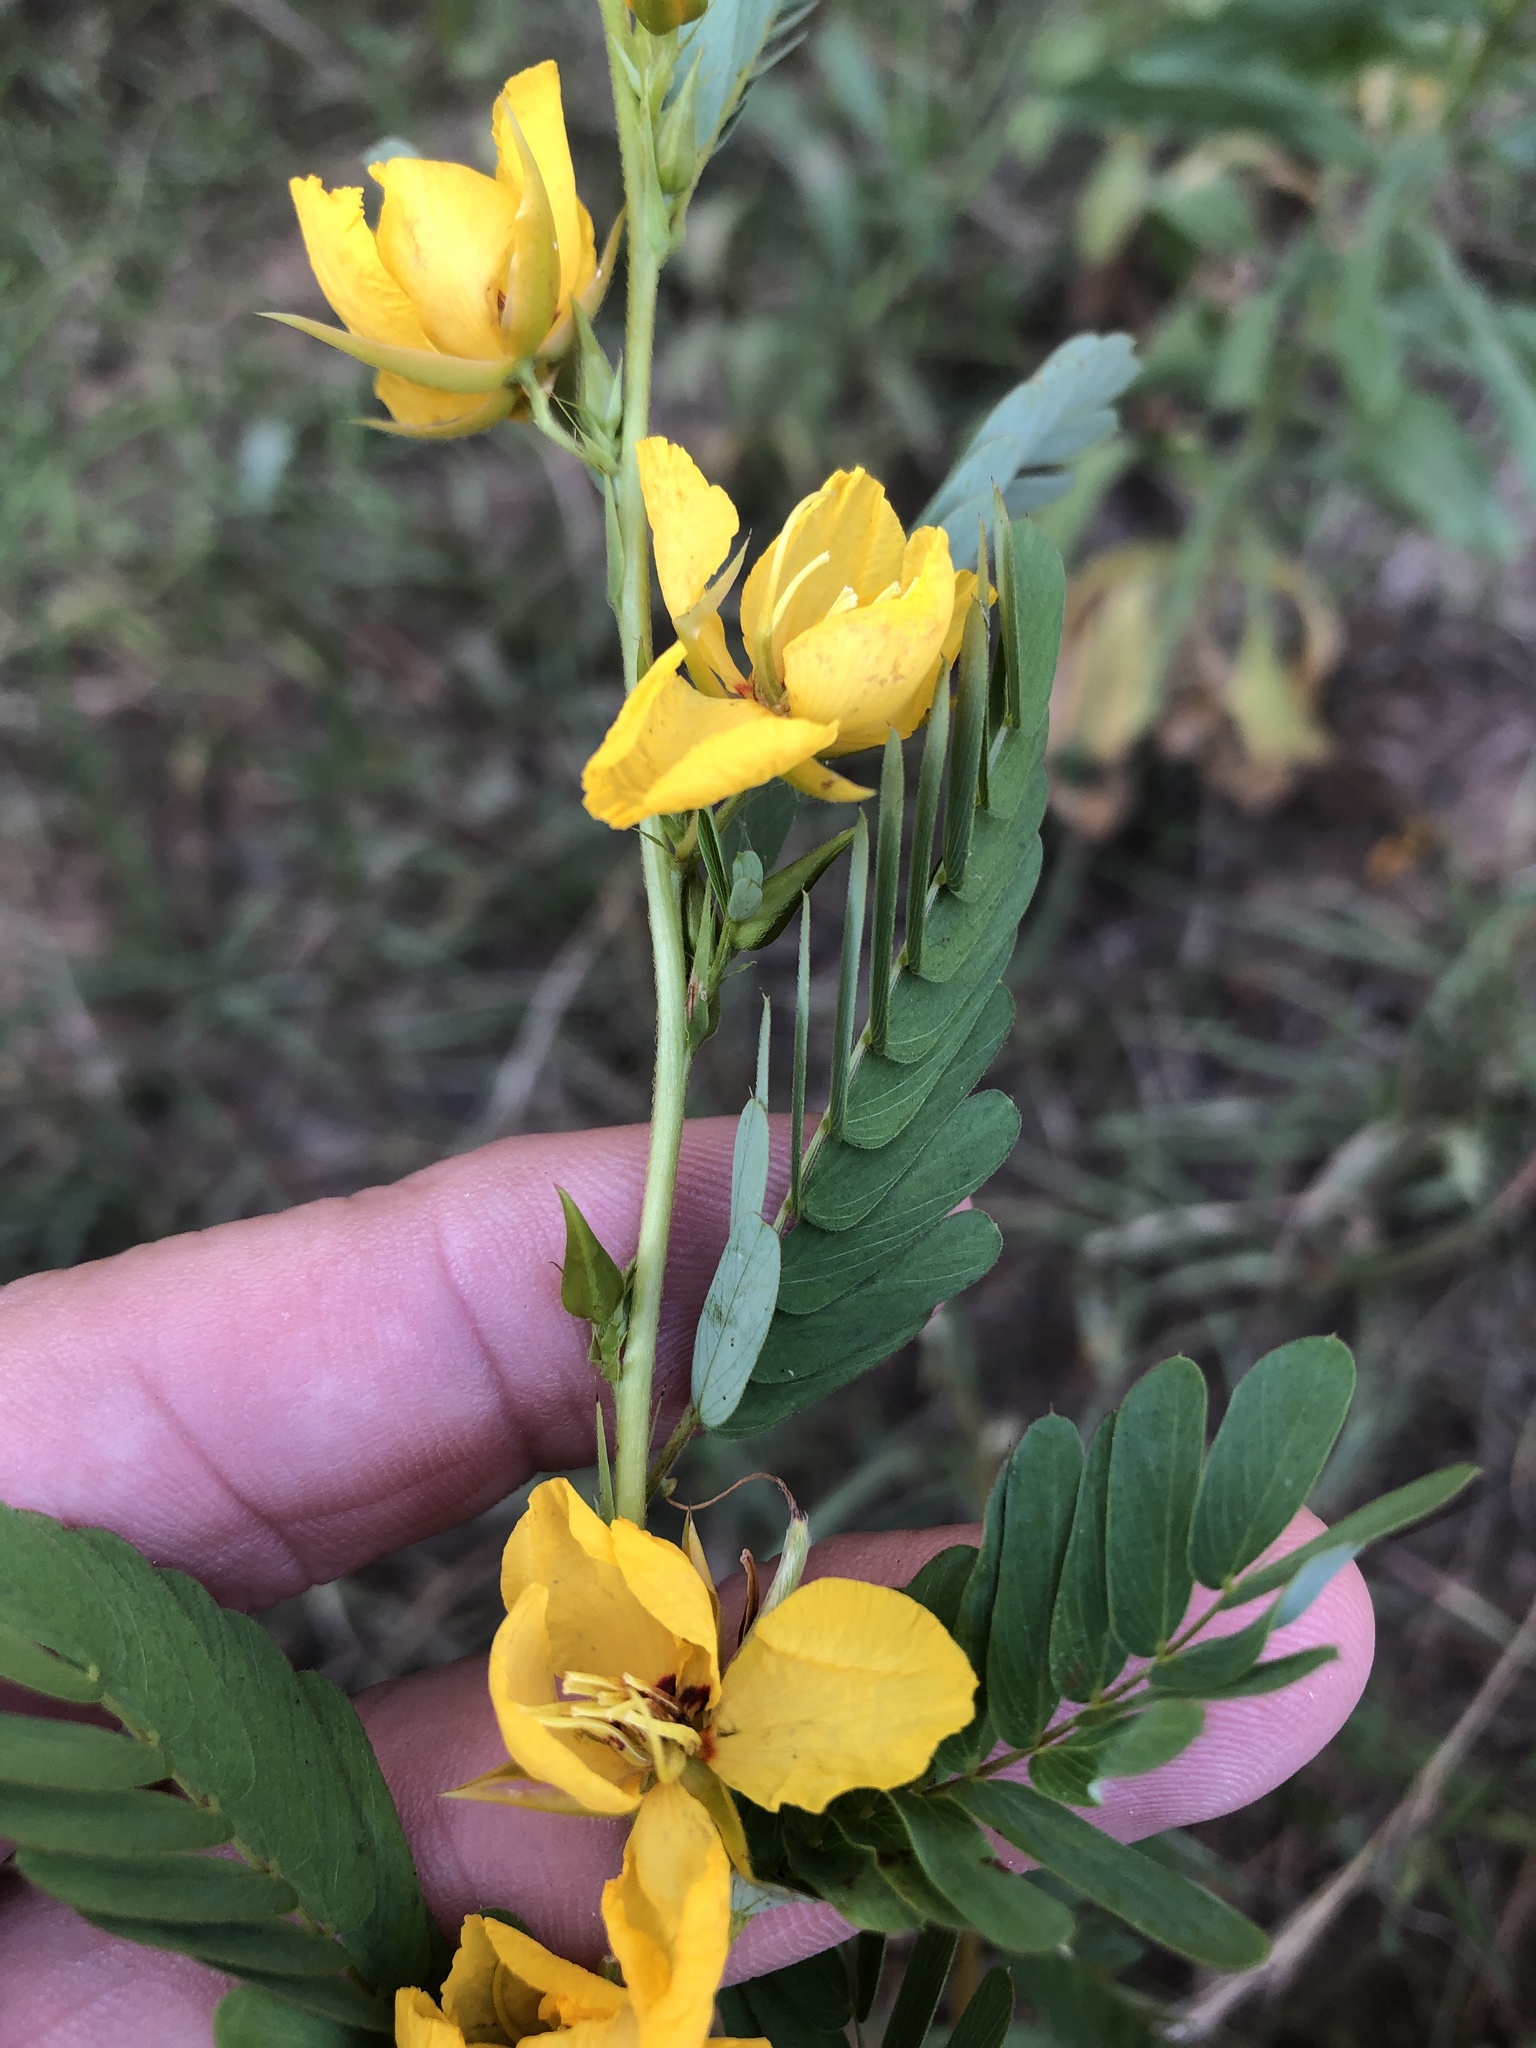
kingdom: Plantae
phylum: Tracheophyta
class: Magnoliopsida
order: Fabales
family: Fabaceae
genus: Chamaecrista
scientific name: Chamaecrista fasciculata
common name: Golden cassia
